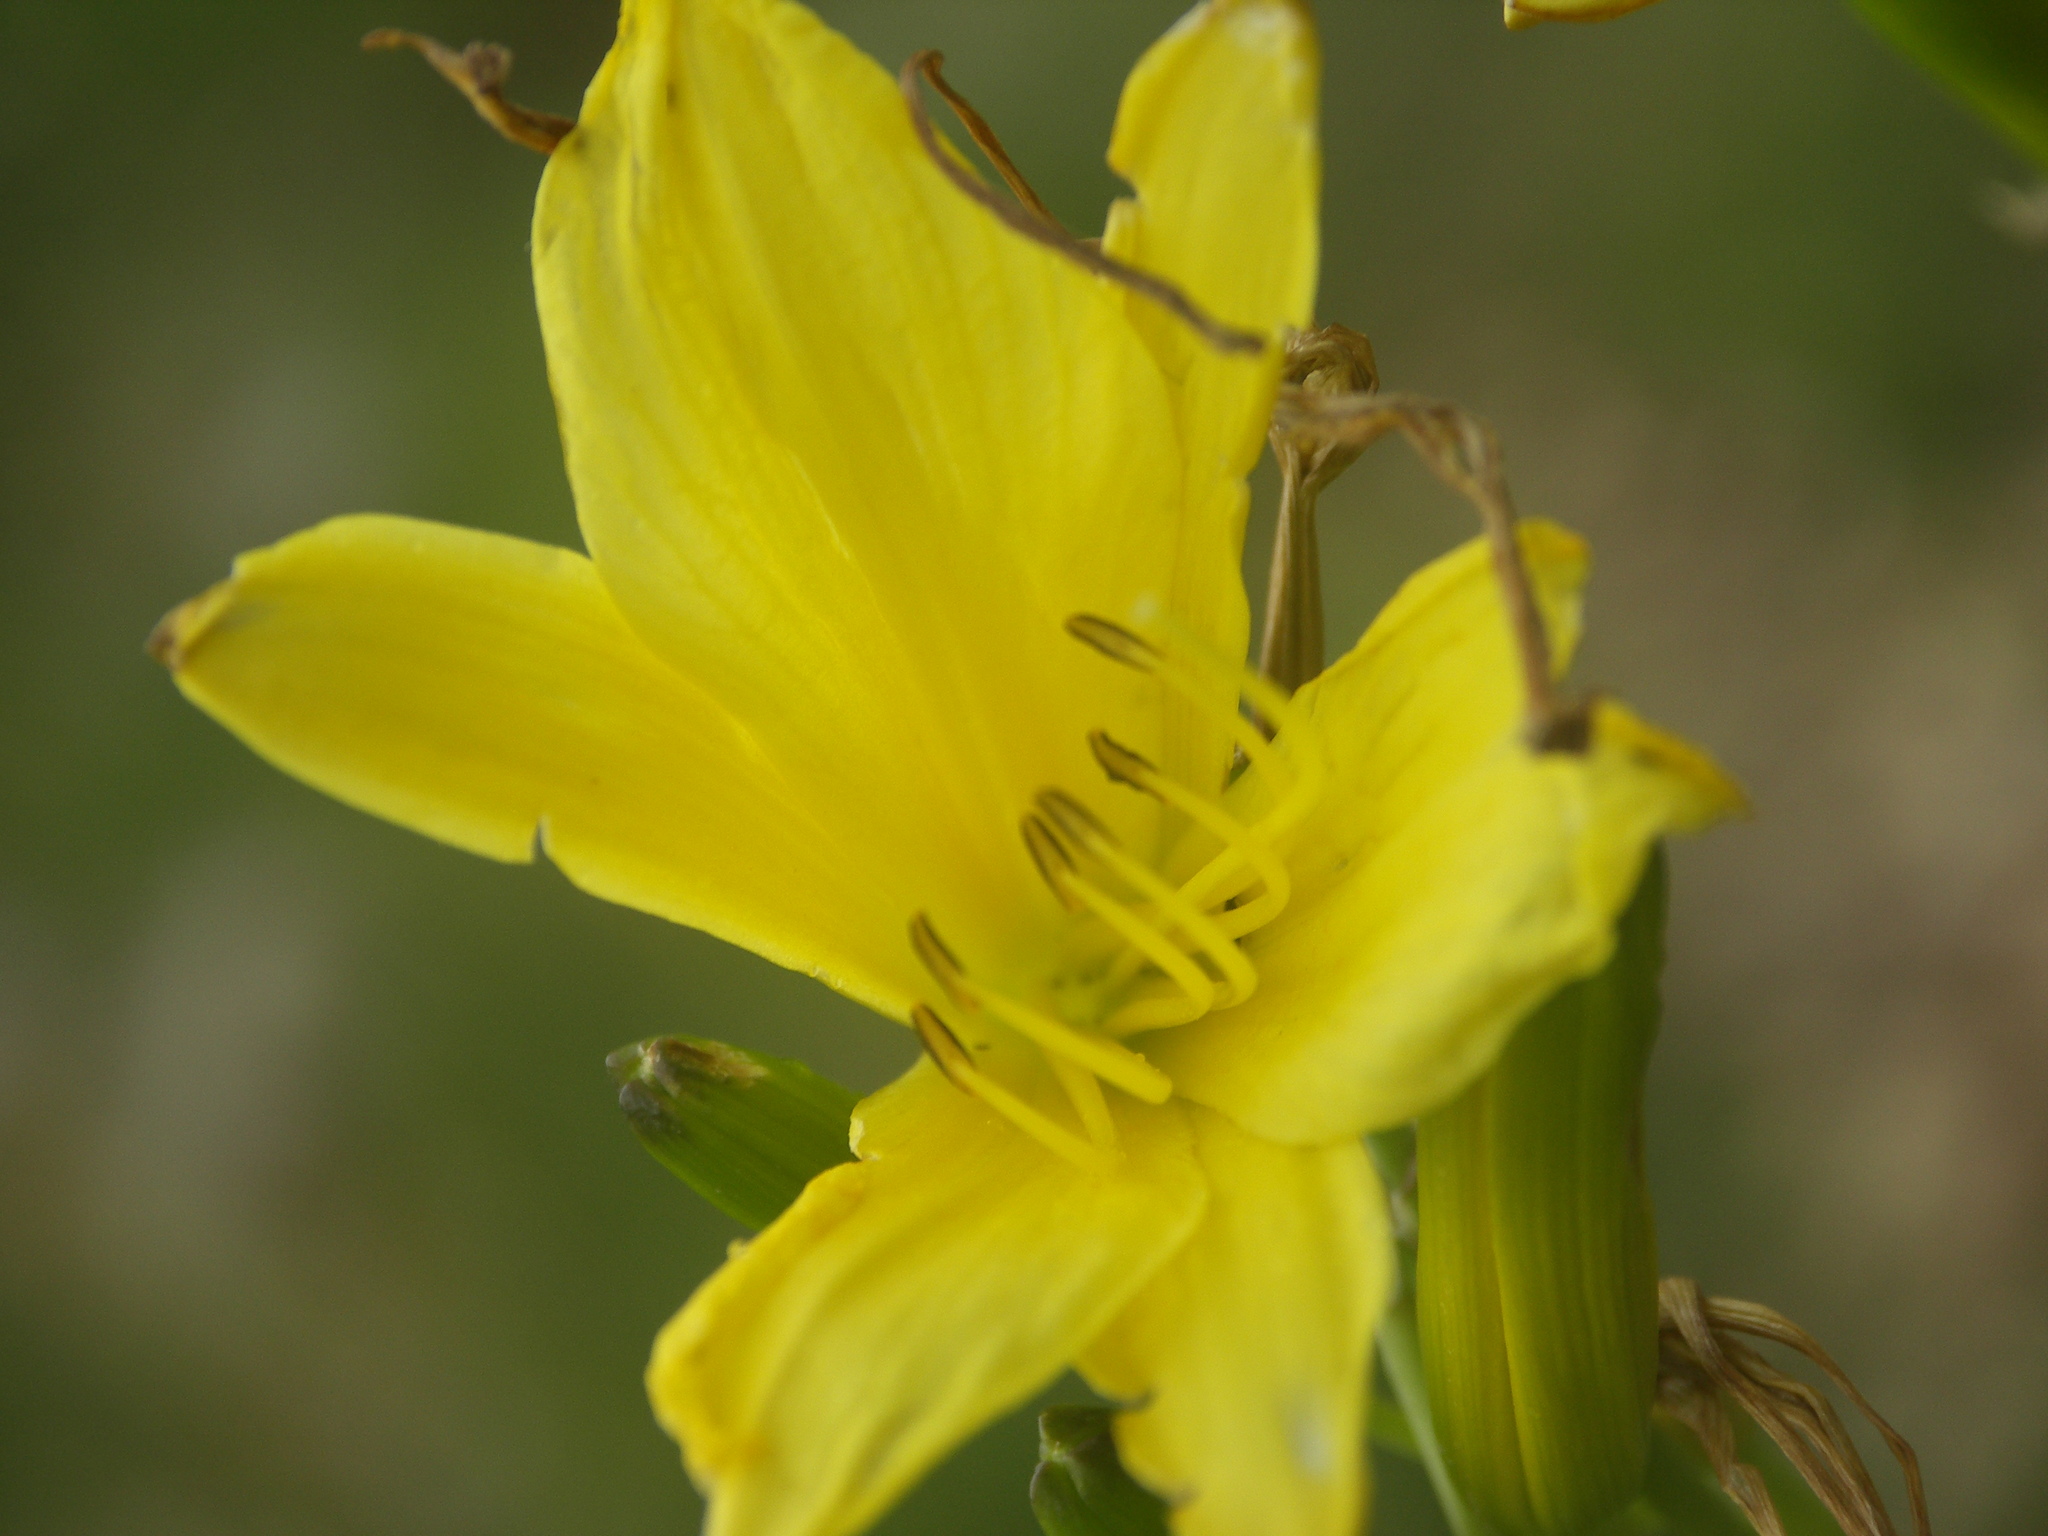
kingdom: Plantae
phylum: Tracheophyta
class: Liliopsida
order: Asparagales
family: Asphodelaceae
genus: Hemerocallis
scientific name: Hemerocallis minor
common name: Small daylily
